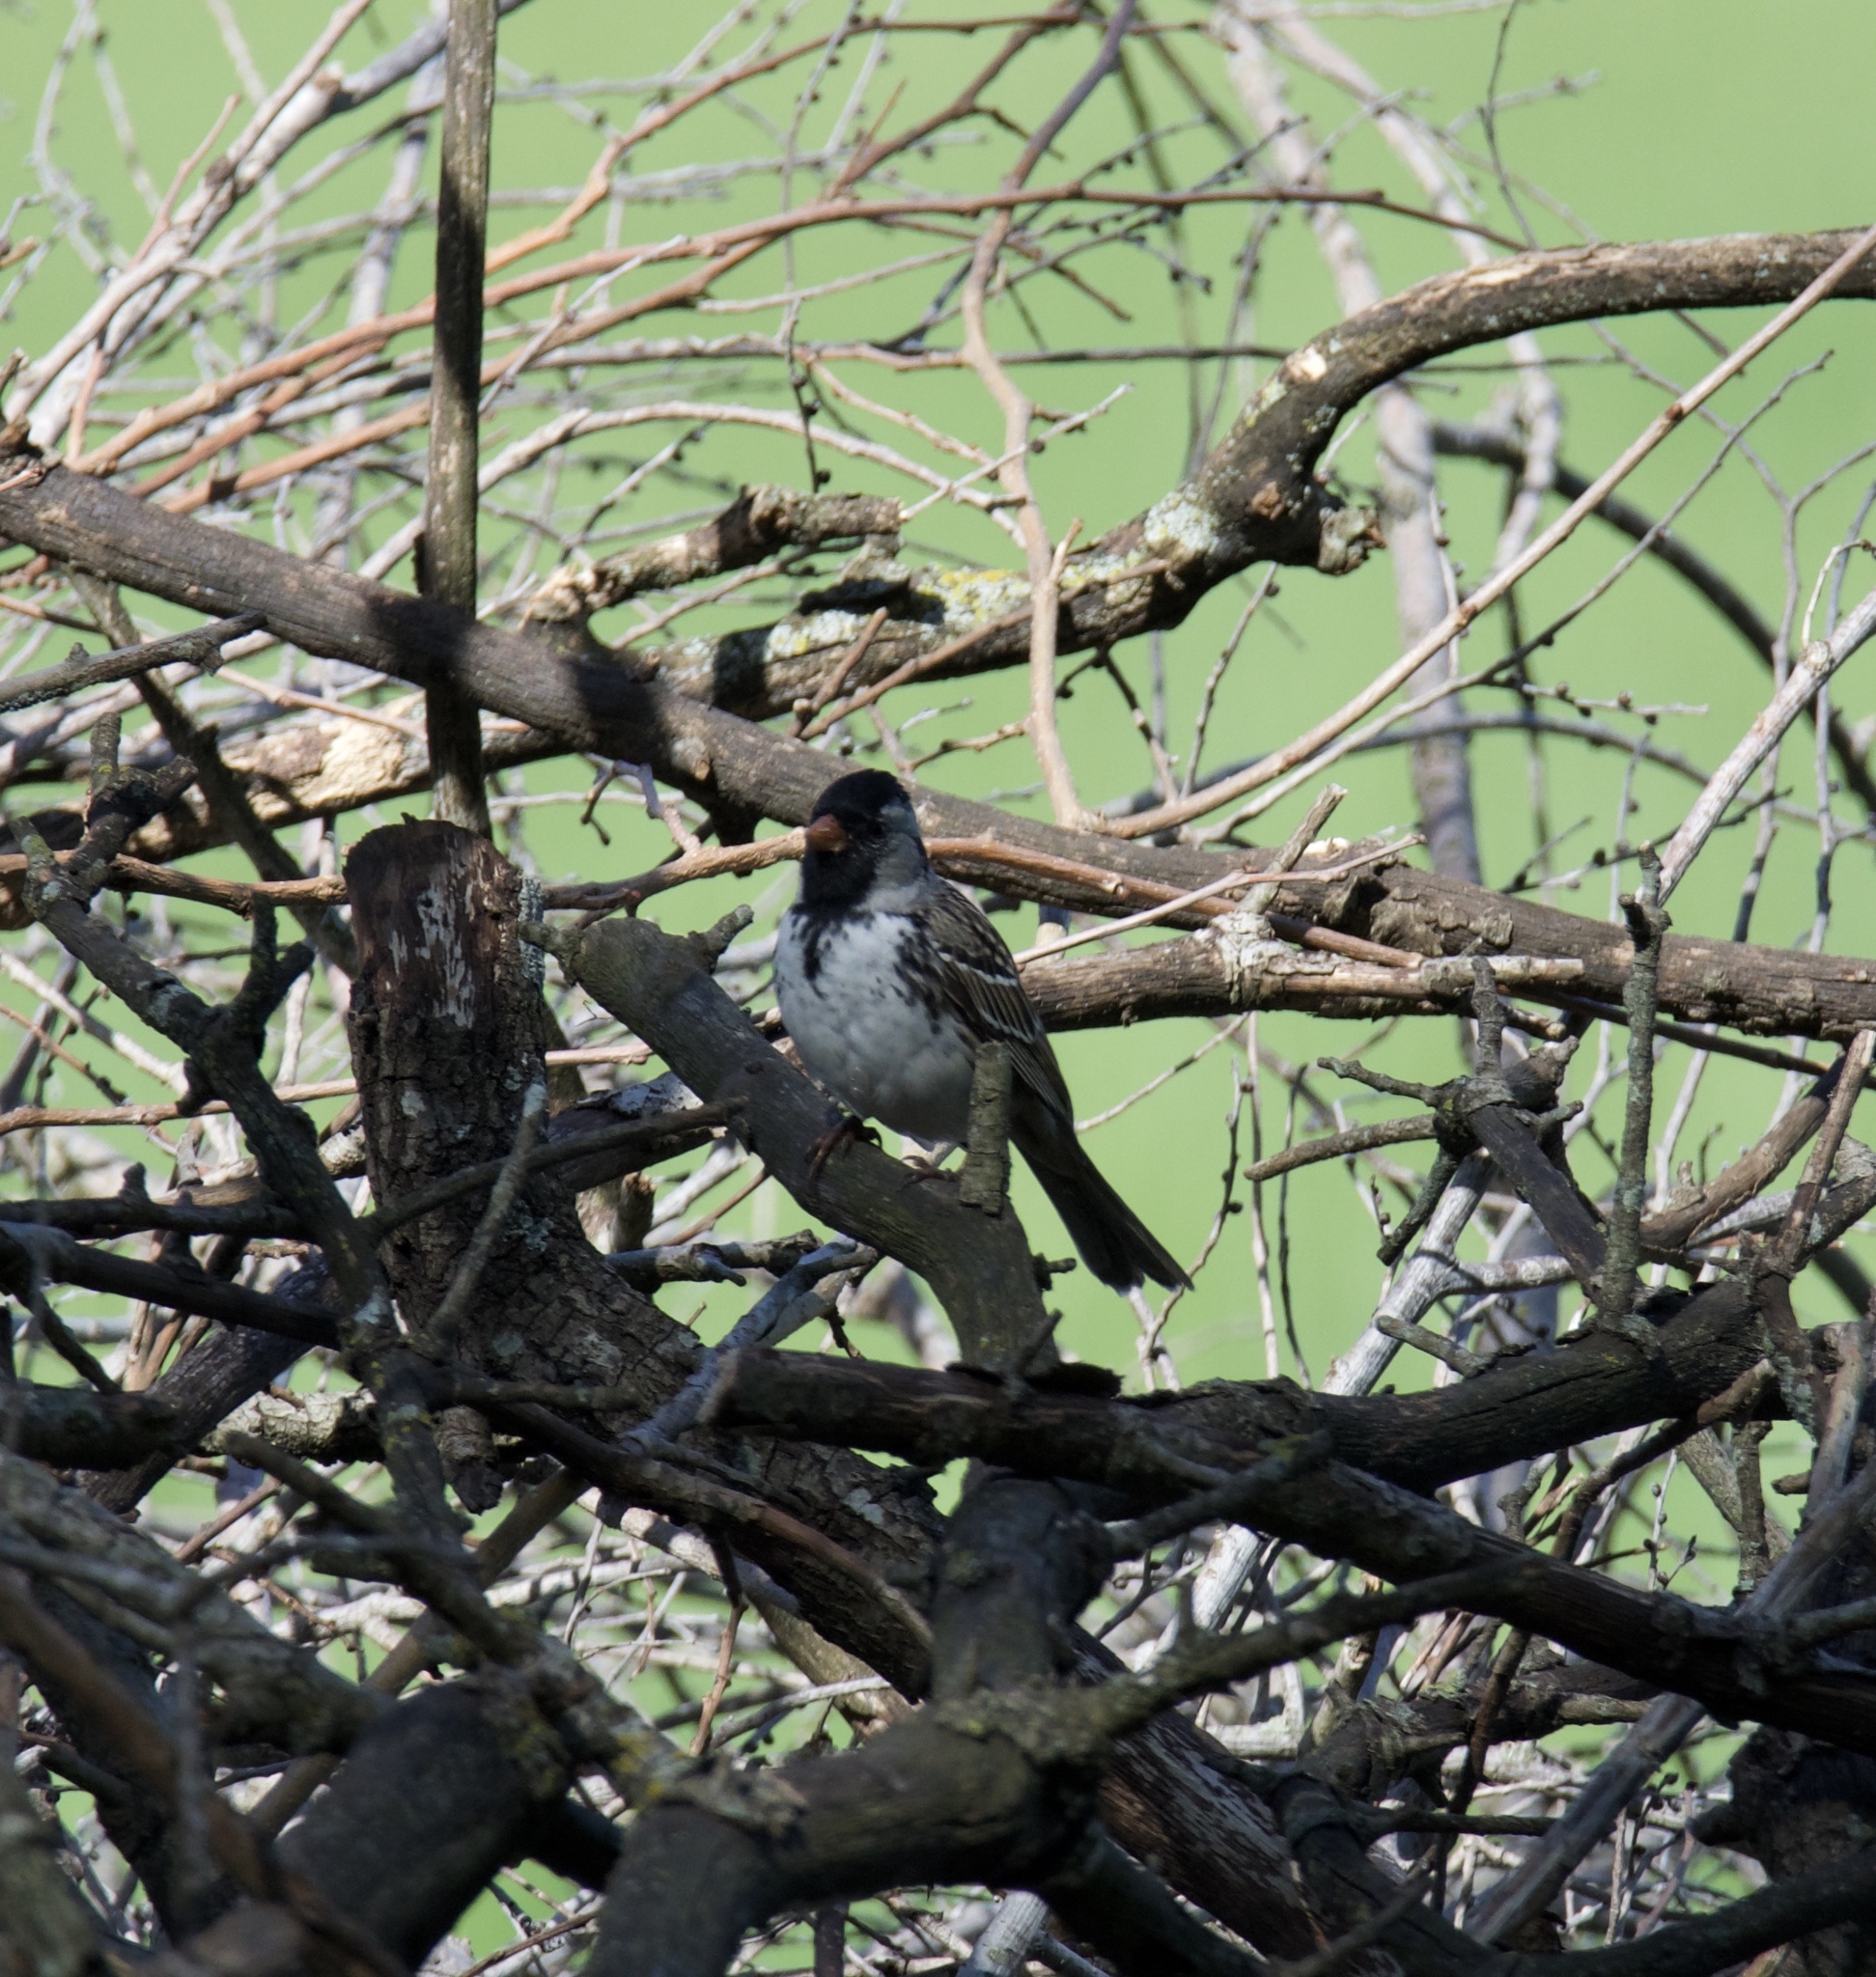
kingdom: Animalia
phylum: Chordata
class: Aves
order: Passeriformes
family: Passerellidae
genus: Zonotrichia
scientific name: Zonotrichia querula
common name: Harris's sparrow
